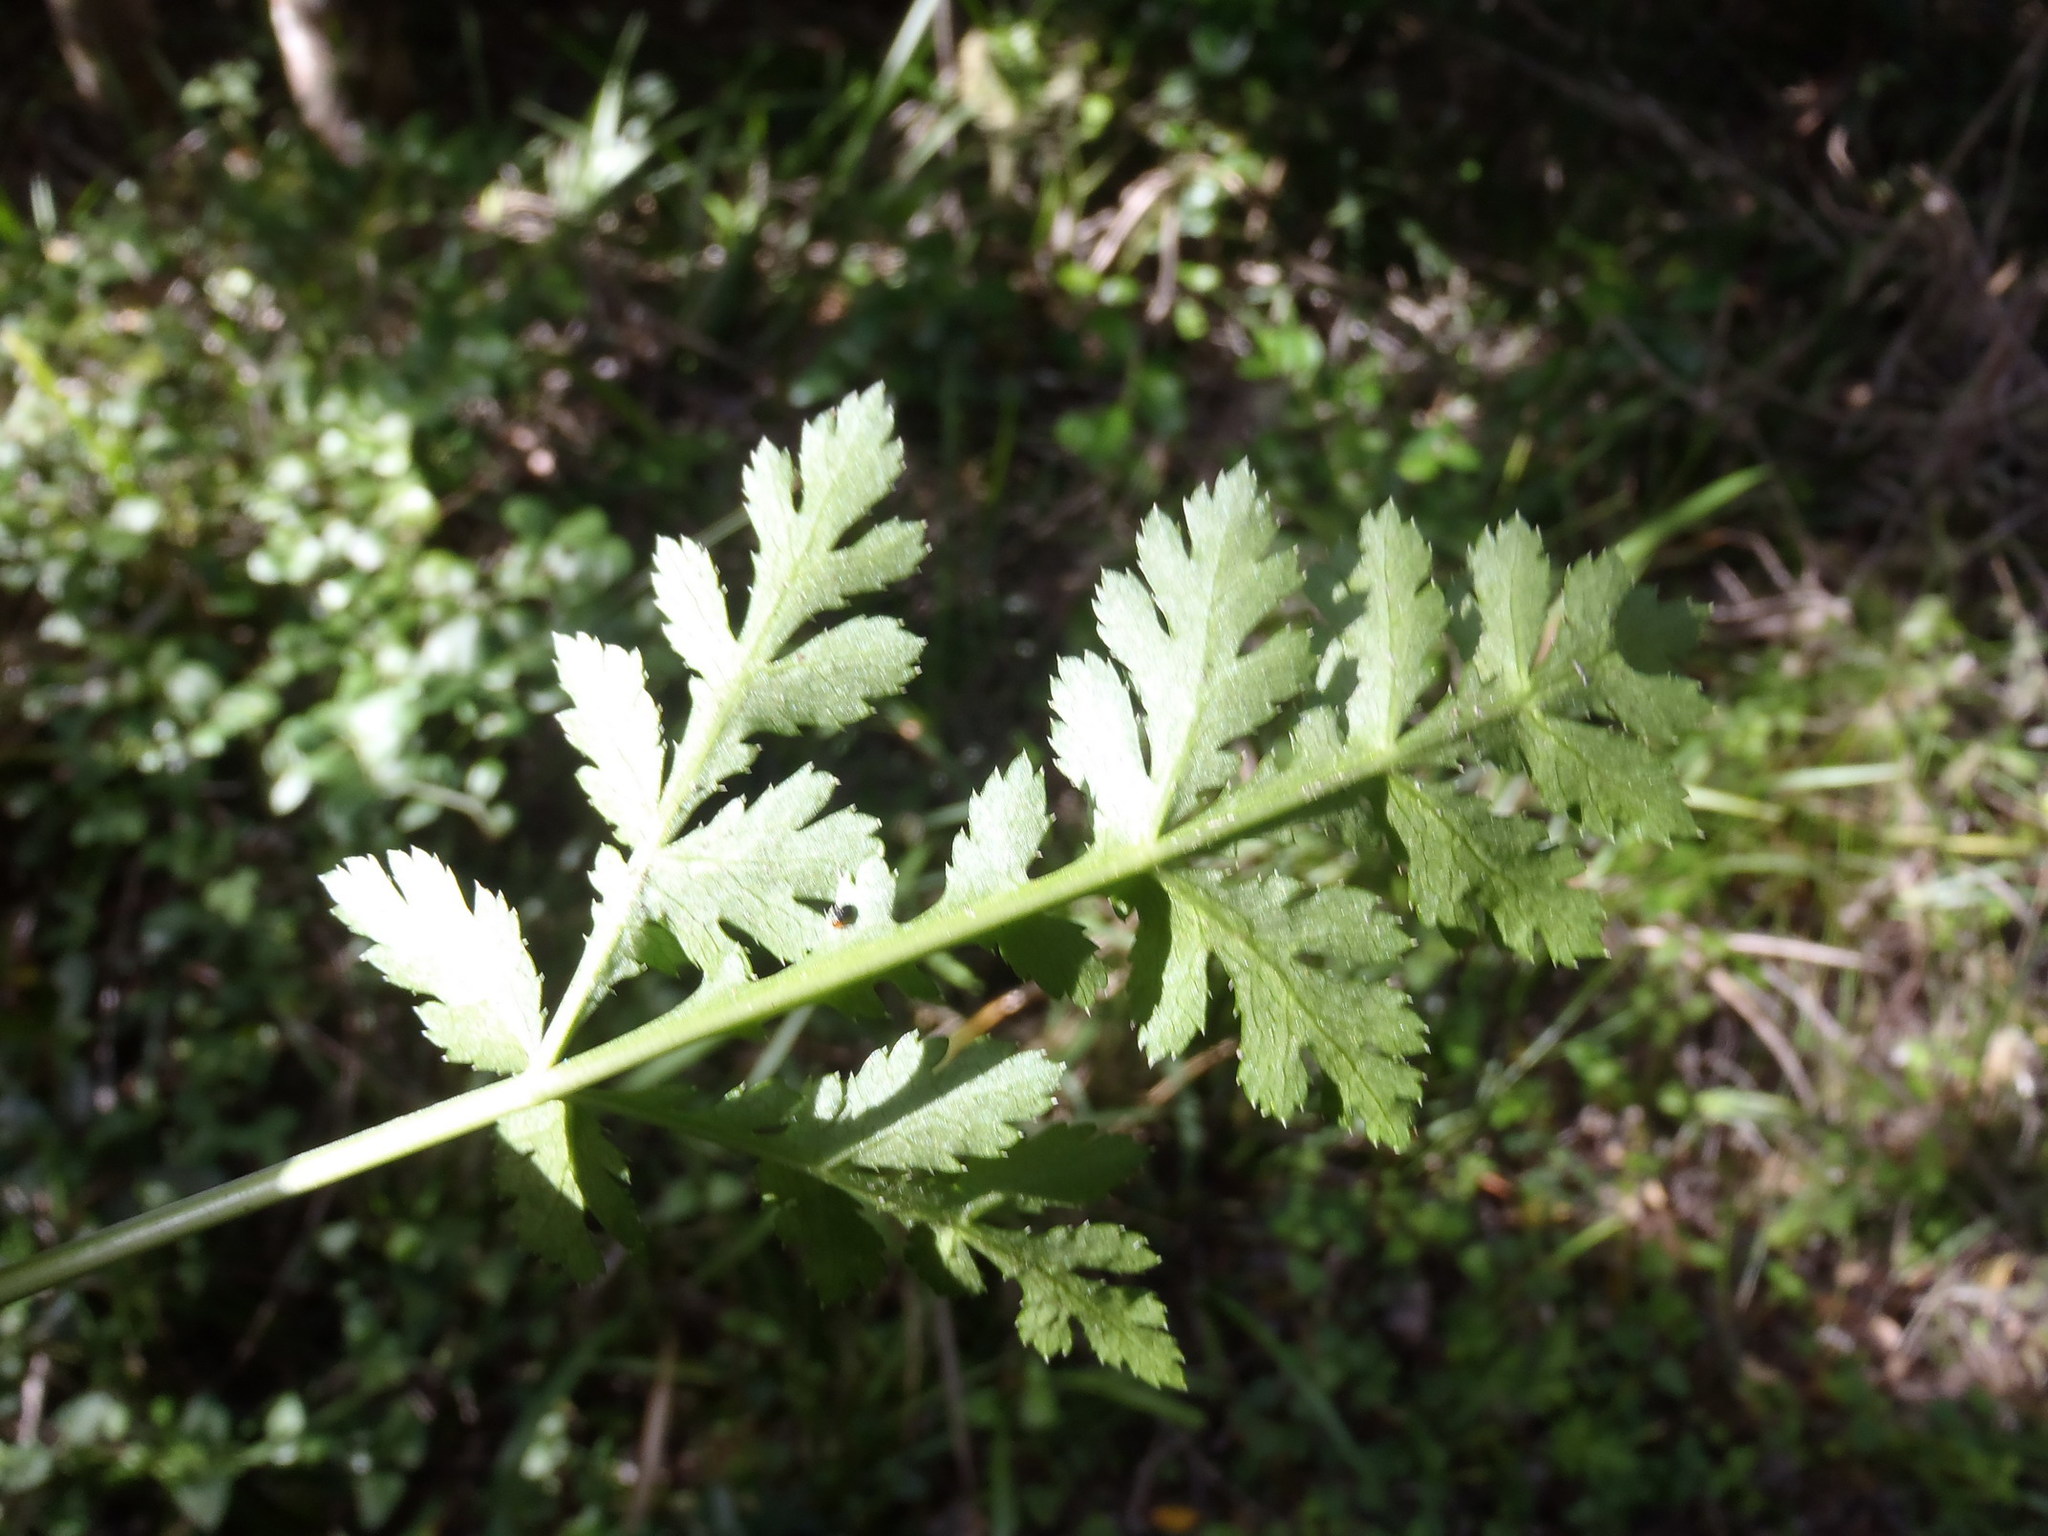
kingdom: Plantae
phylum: Tracheophyta
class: Magnoliopsida
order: Apiales
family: Apiaceae
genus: Lichtensteinia
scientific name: Lichtensteinia interrupta
